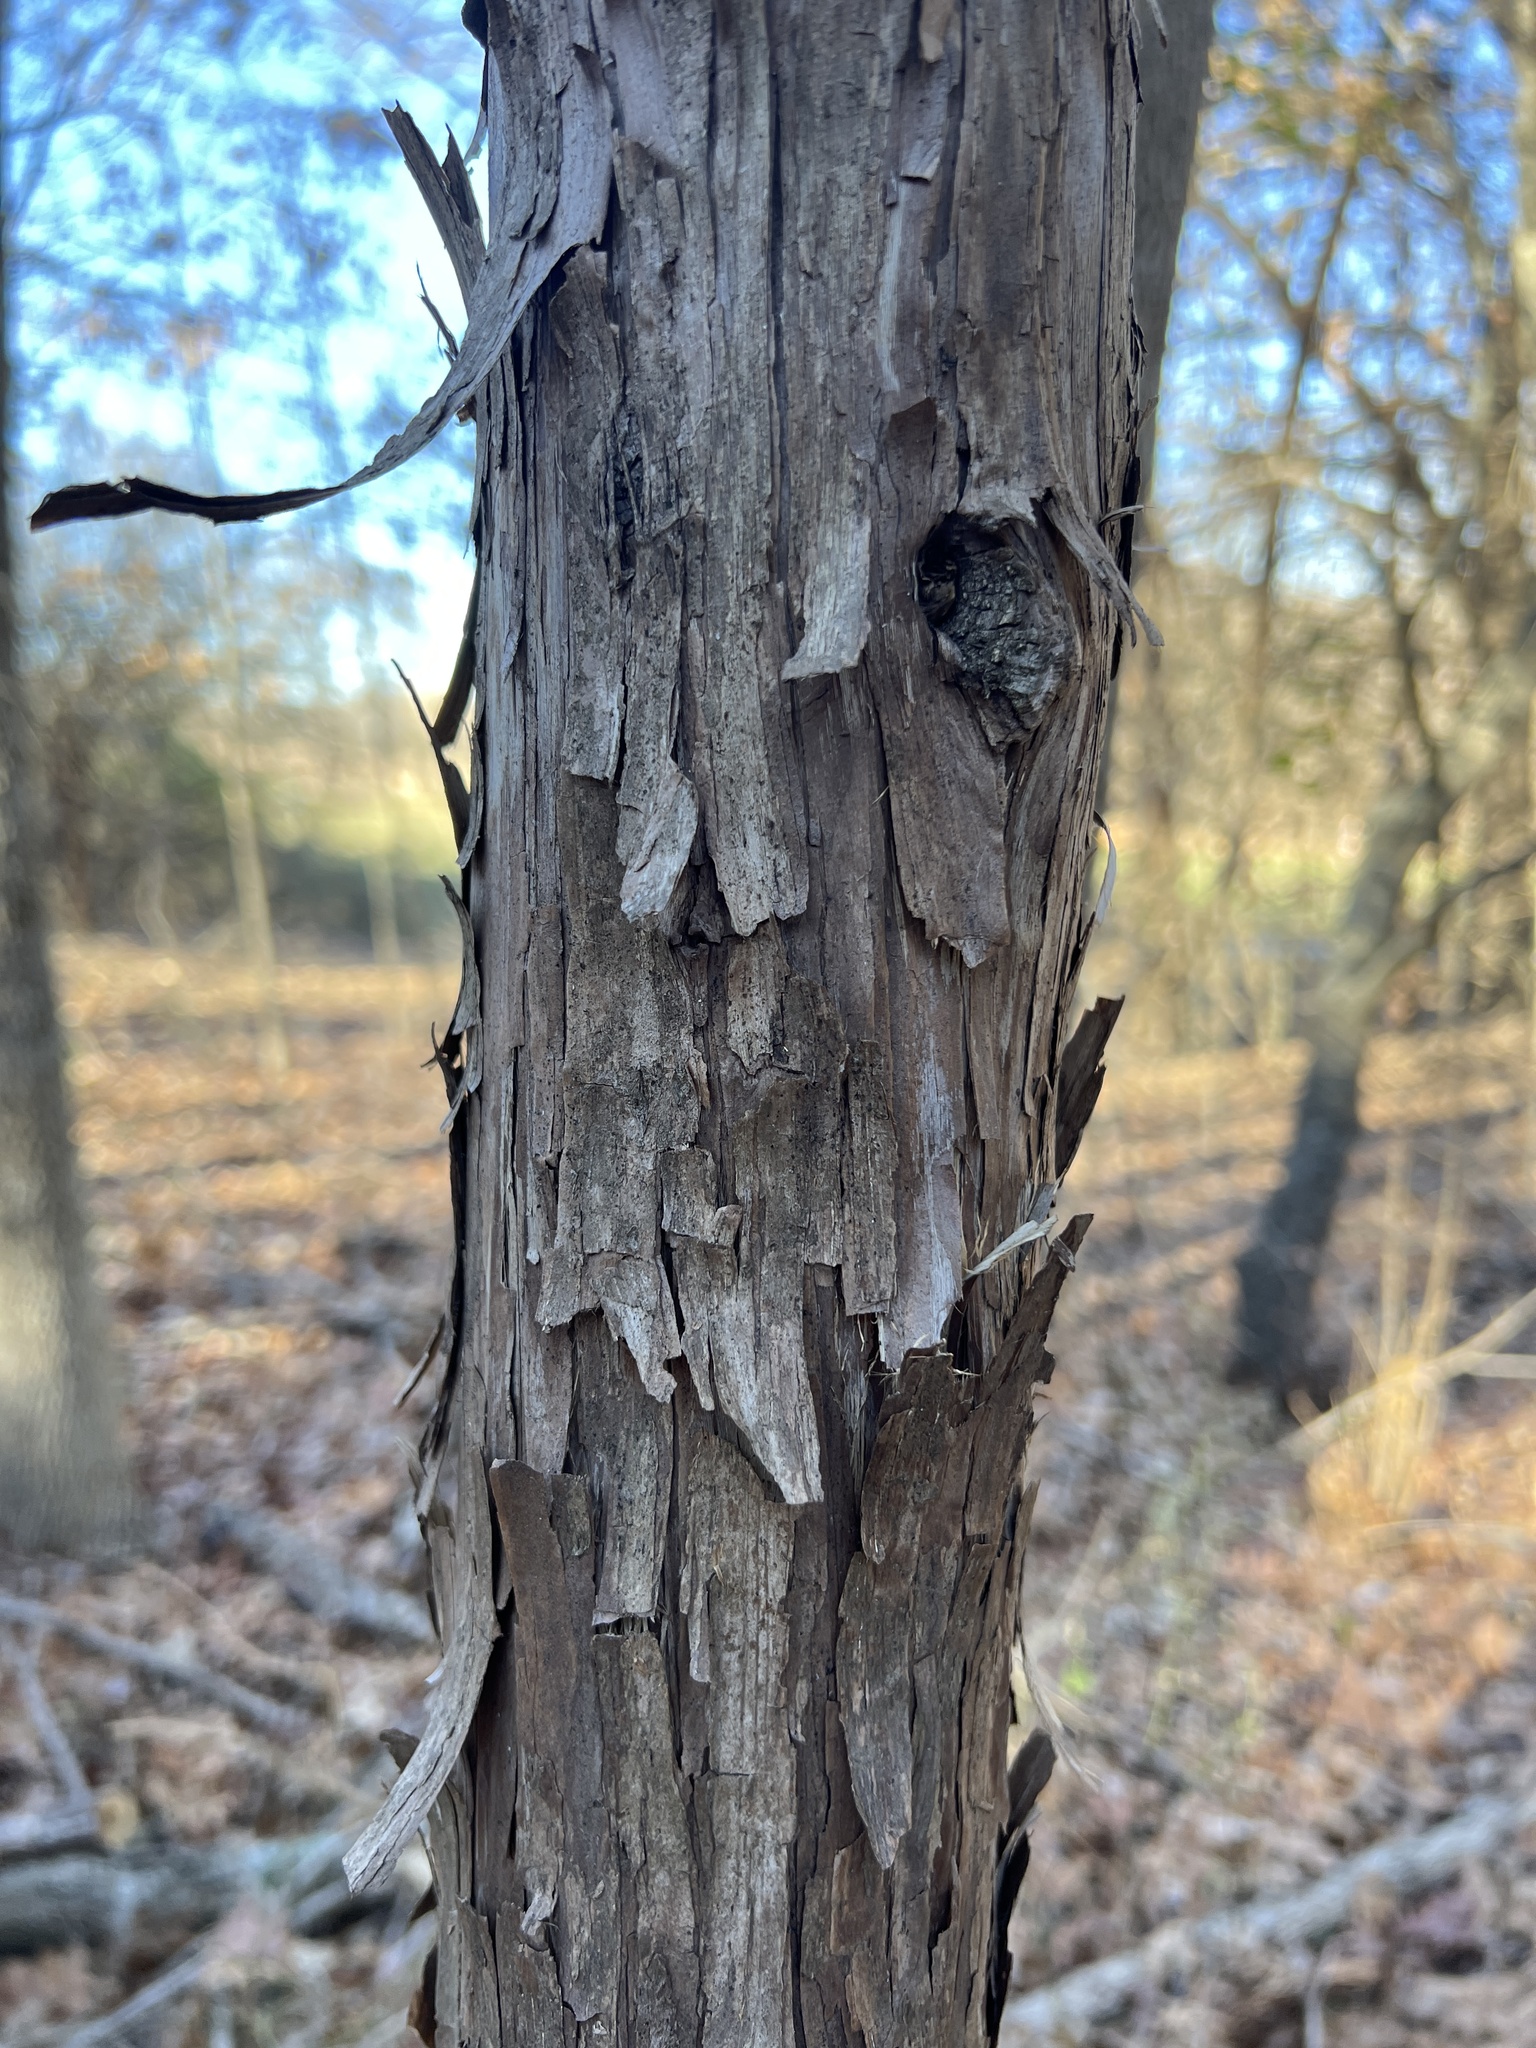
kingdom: Plantae
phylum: Tracheophyta
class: Pinopsida
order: Pinales
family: Cupressaceae
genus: Juniperus
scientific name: Juniperus virginiana
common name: Red juniper
